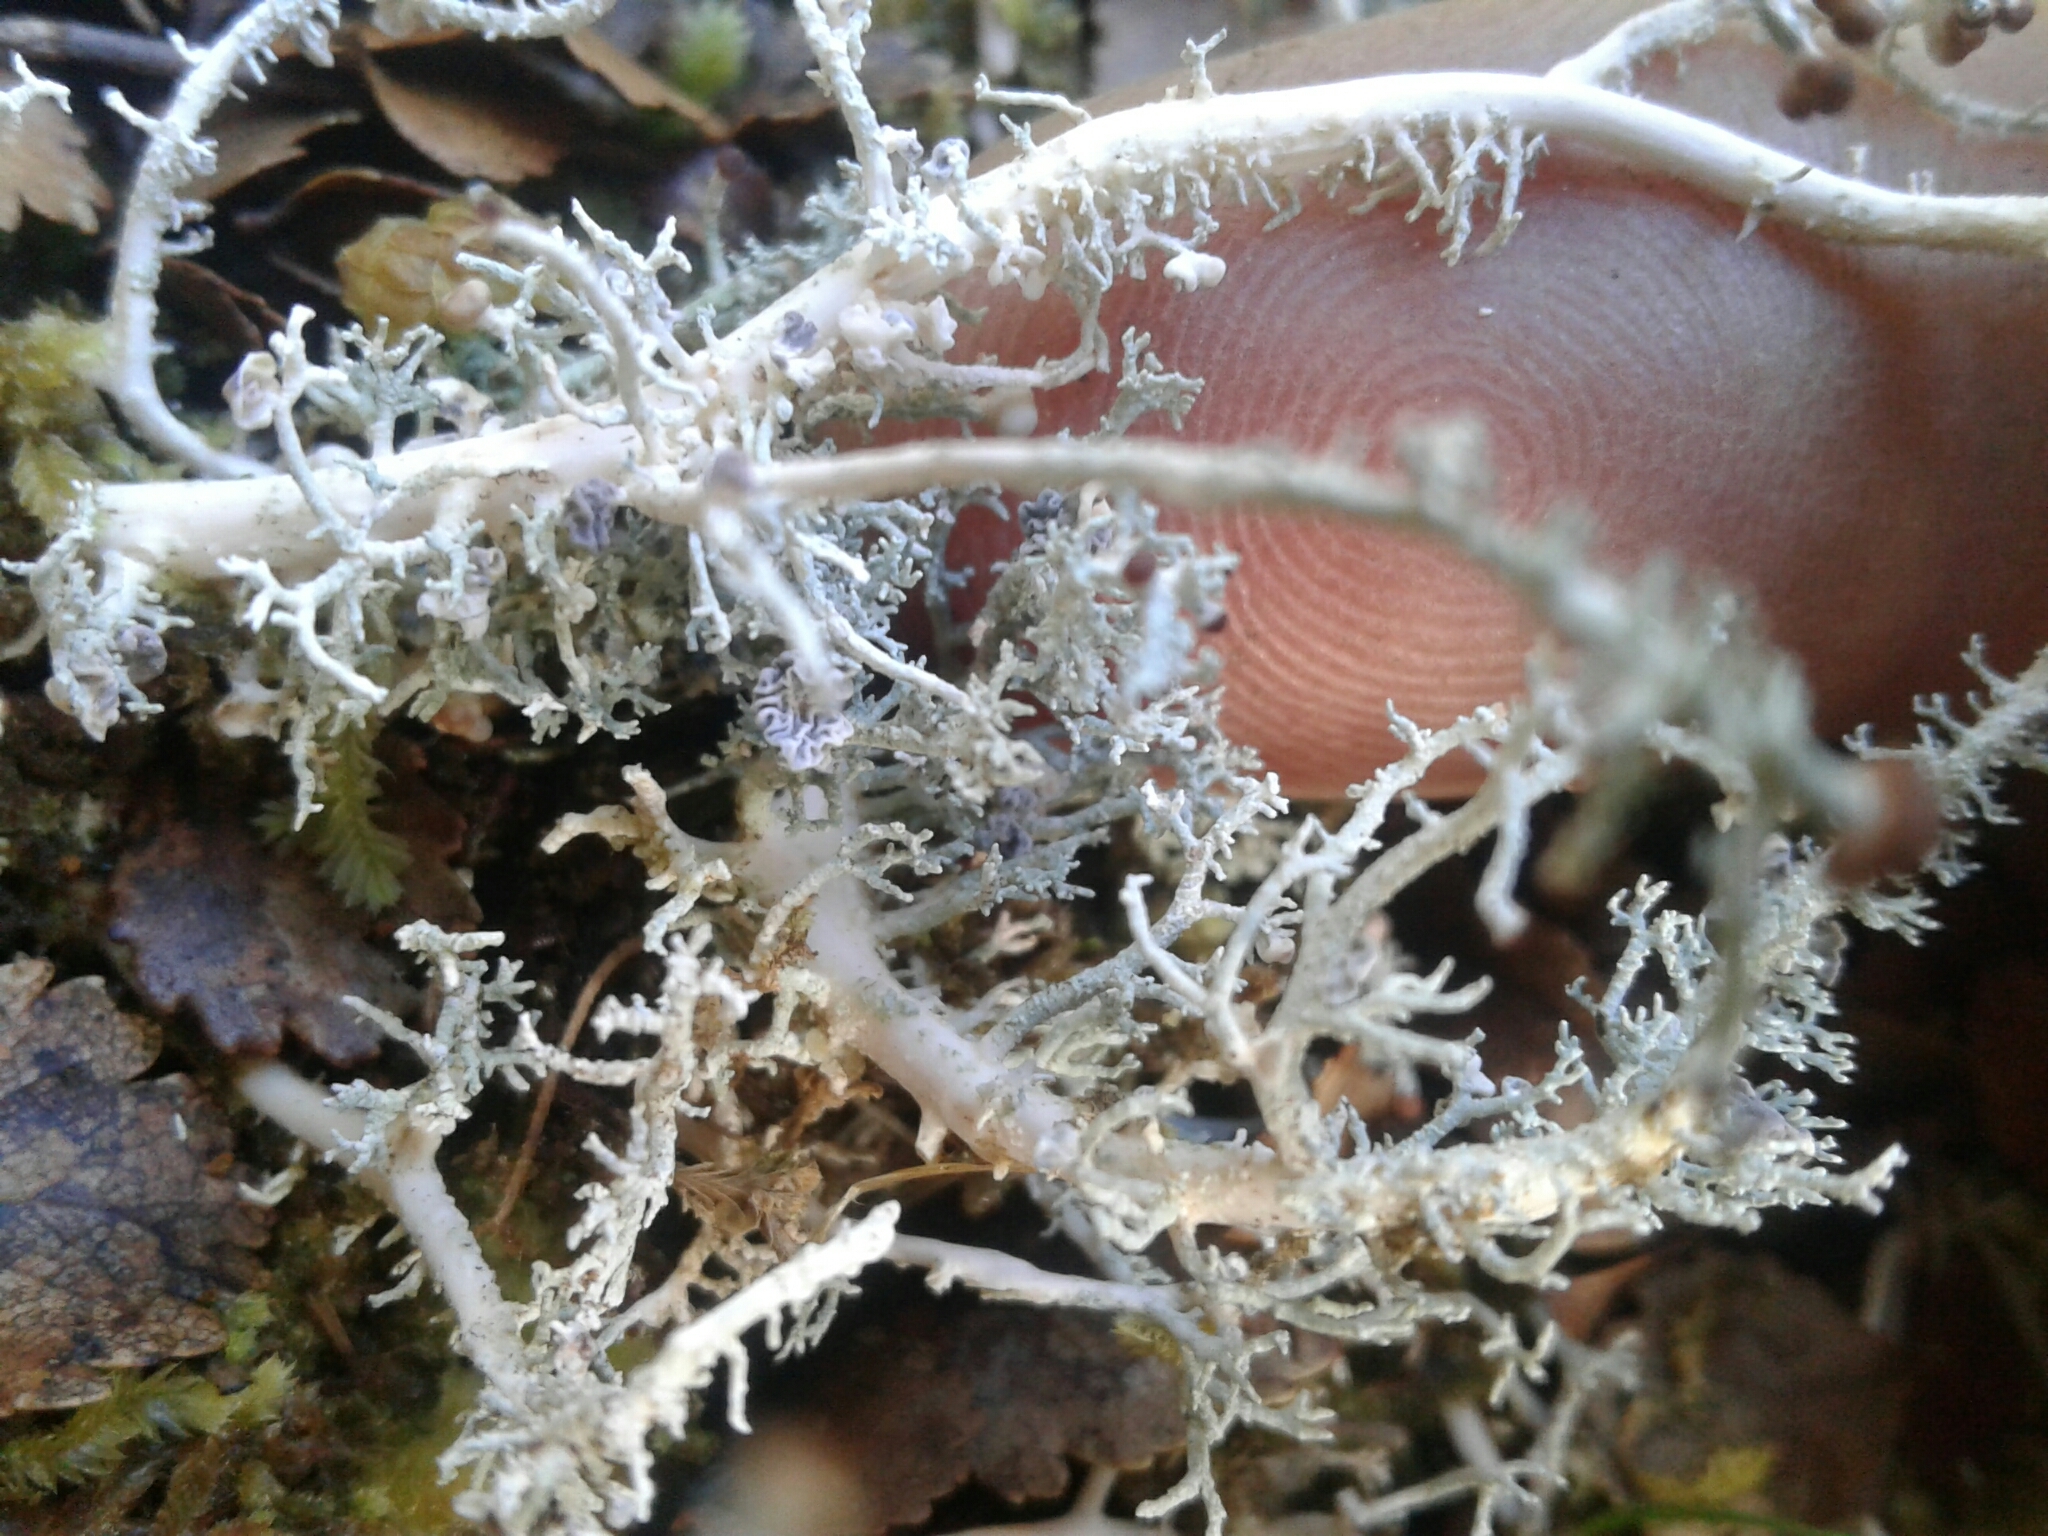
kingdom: Fungi
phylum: Ascomycota
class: Lecanoromycetes
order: Lecanorales
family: Stereocaulaceae
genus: Stereocaulon
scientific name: Stereocaulon ramulosum
